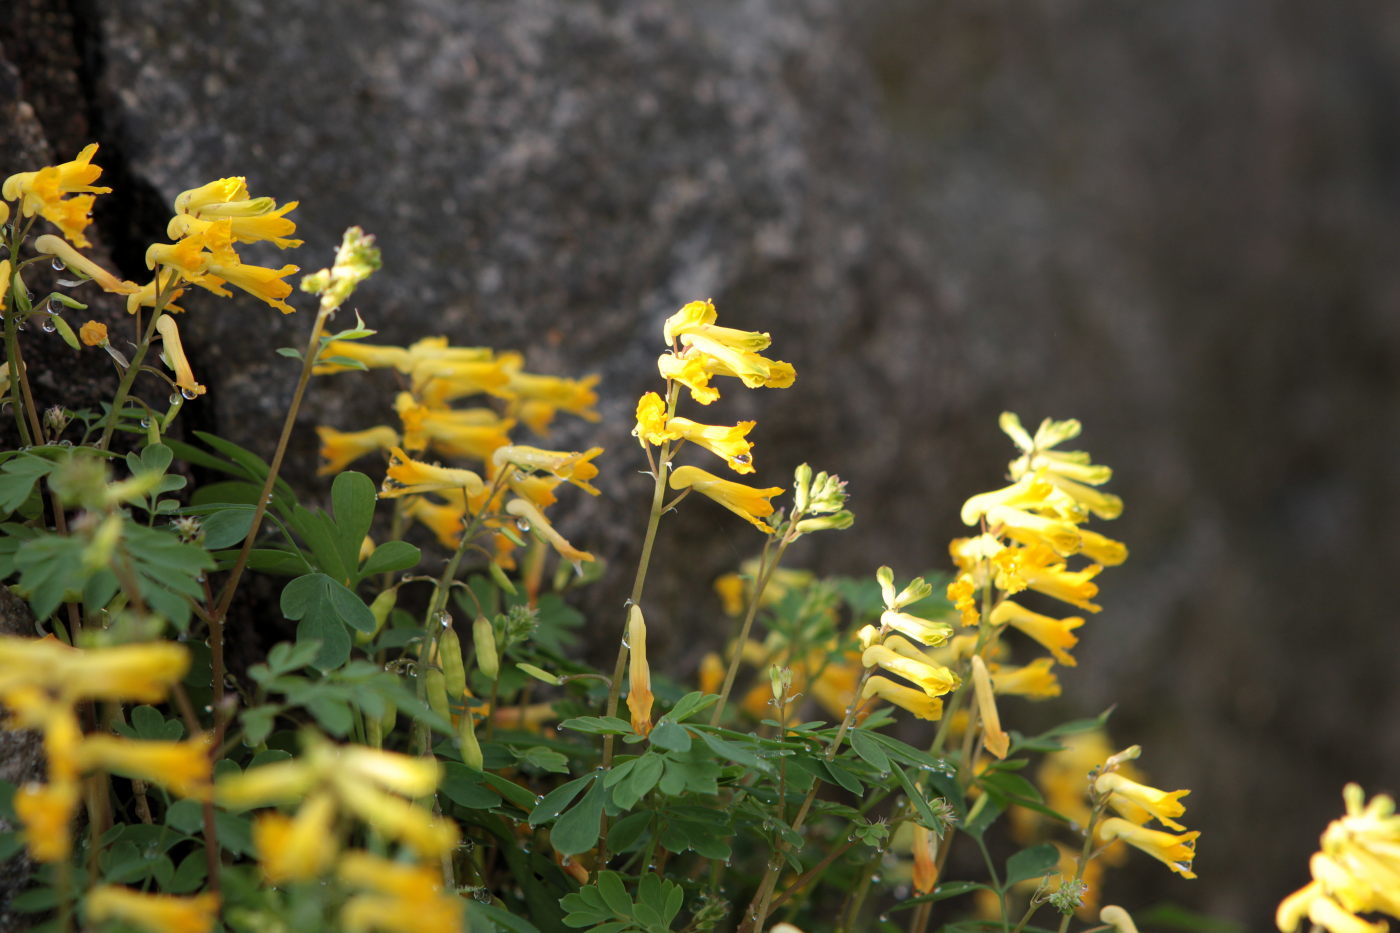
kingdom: Plantae
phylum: Tracheophyta
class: Magnoliopsida
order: Ranunculales
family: Papaveraceae
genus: Pseudofumaria
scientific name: Pseudofumaria lutea
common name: Yellow corydalis
